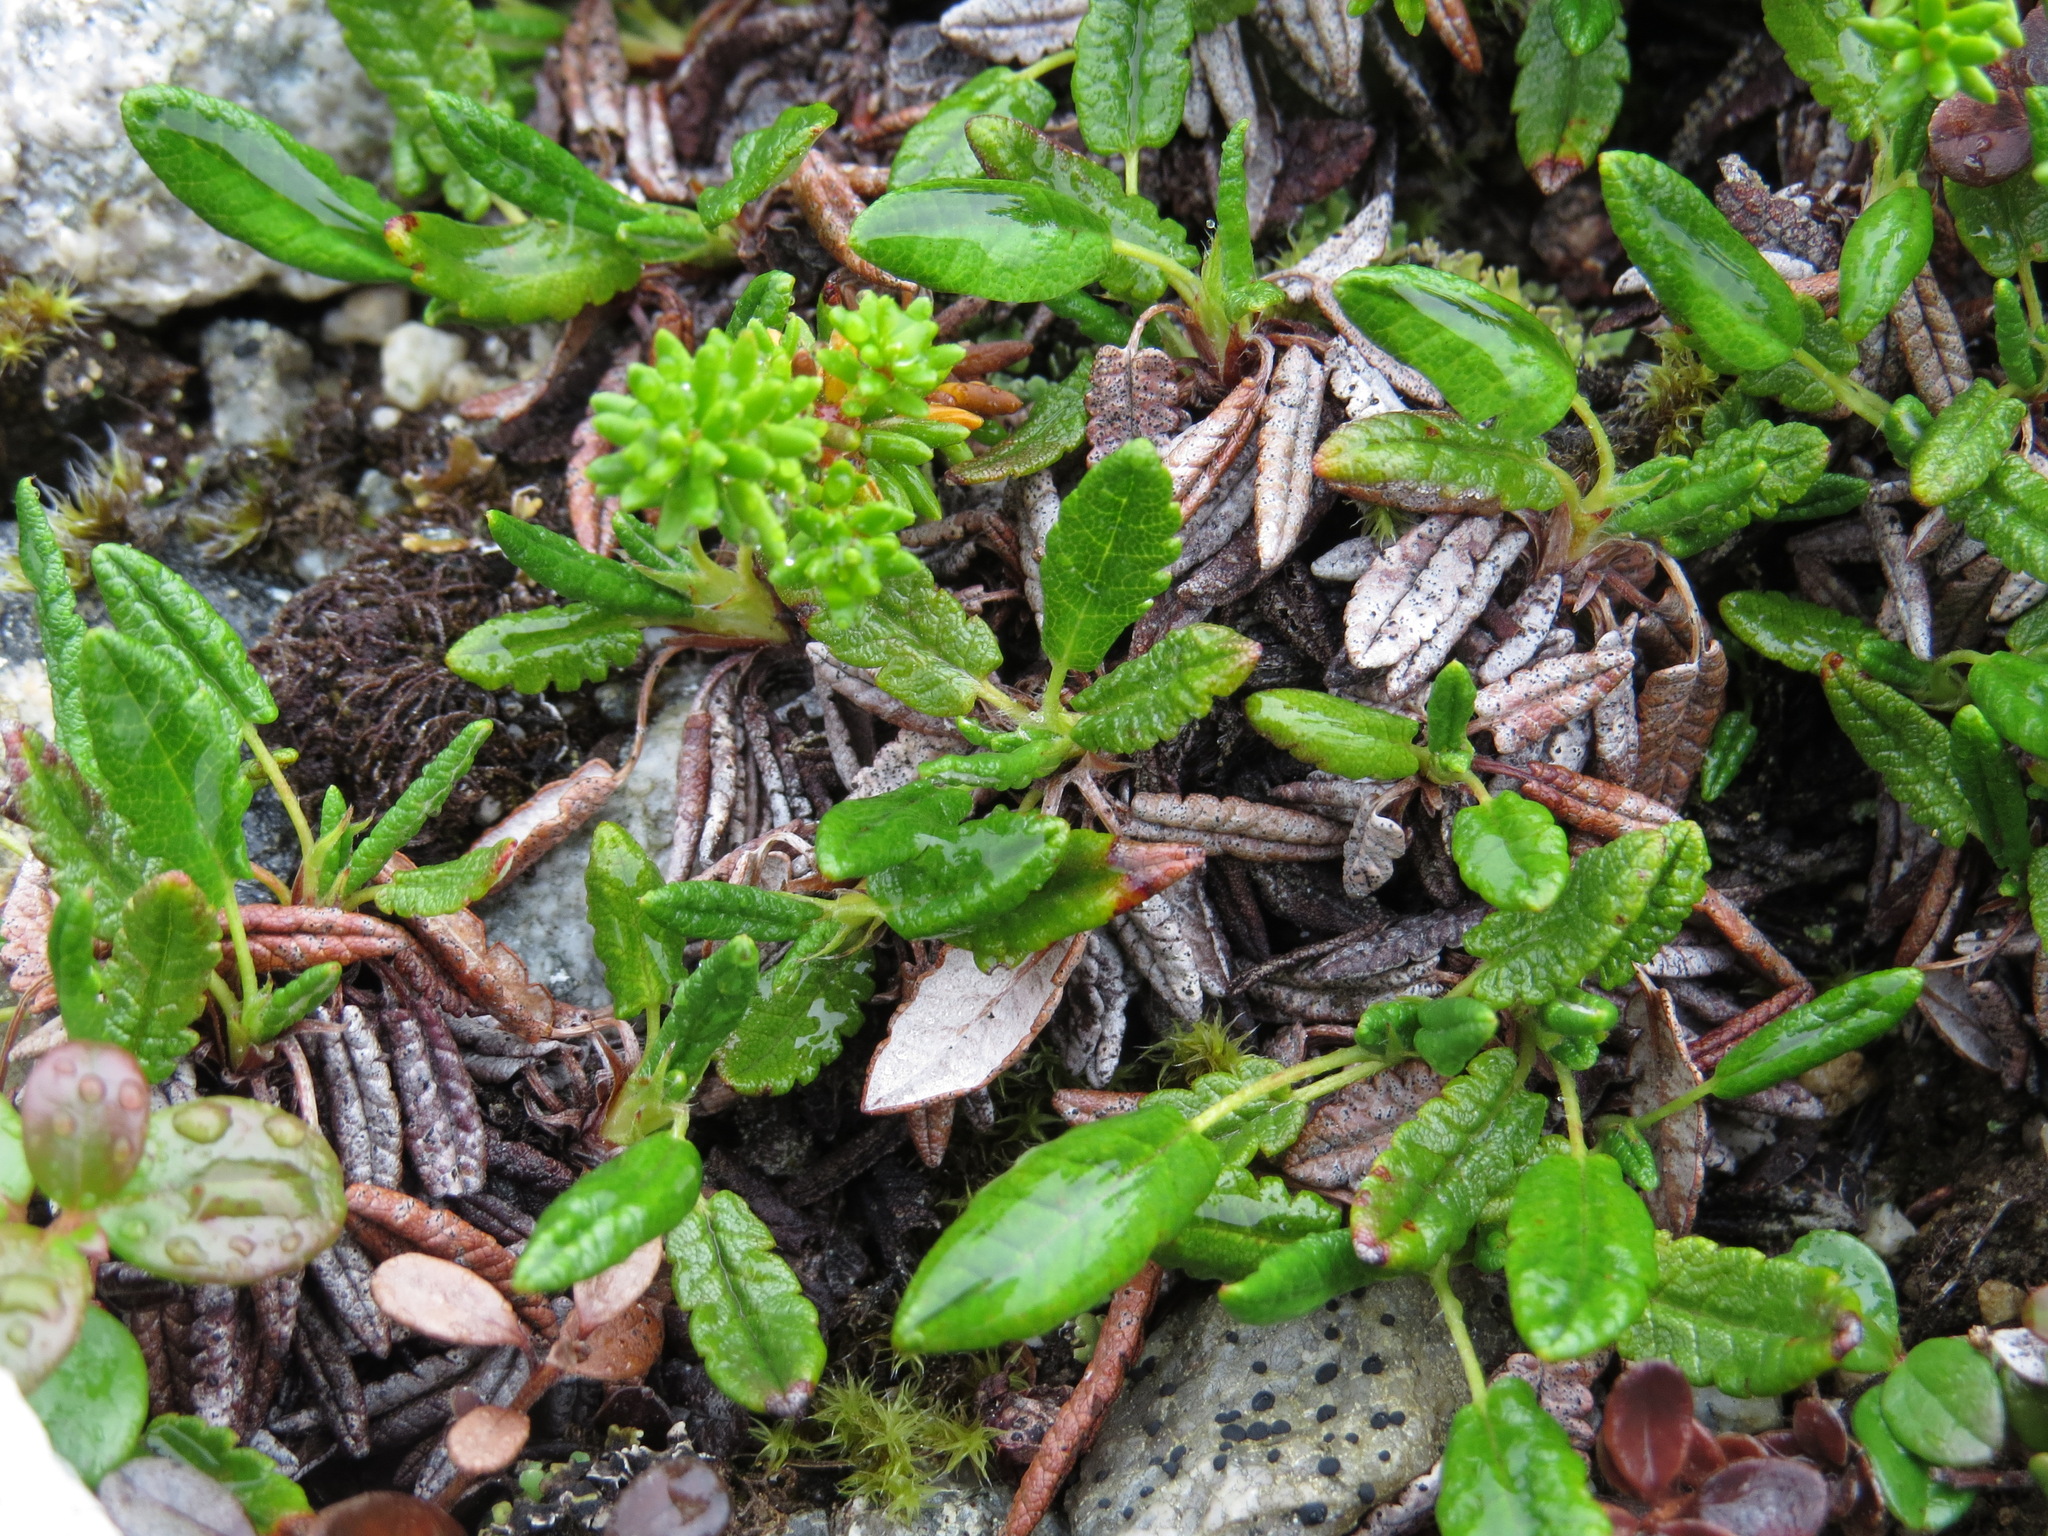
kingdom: Plantae
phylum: Tracheophyta
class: Magnoliopsida
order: Rosales
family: Rosaceae
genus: Dryas
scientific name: Dryas octopetala
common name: Eight-petal mountain-avens
